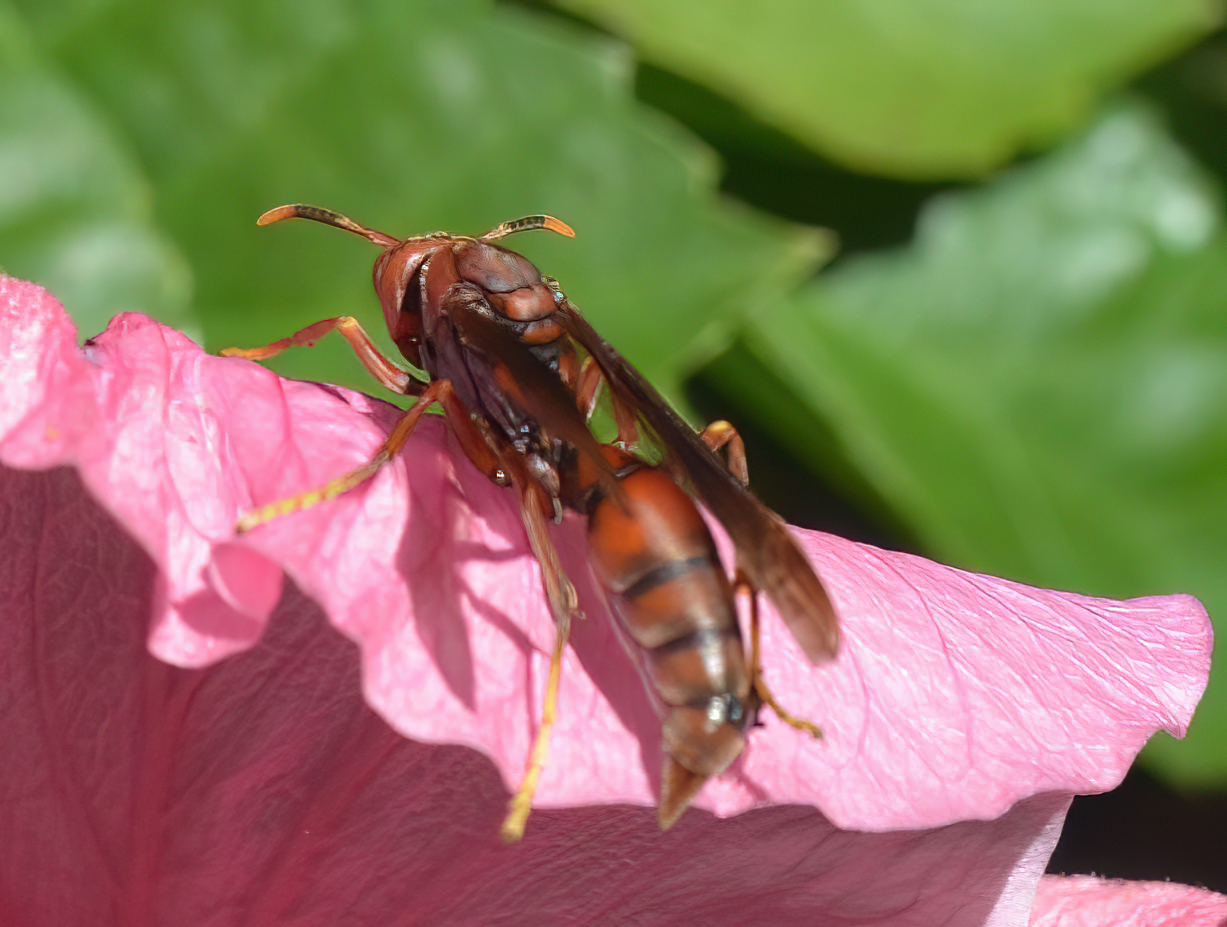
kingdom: Animalia
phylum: Arthropoda
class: Insecta
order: Hymenoptera
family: Pompilidae
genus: Aphanilopterus
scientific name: Aphanilopterus
